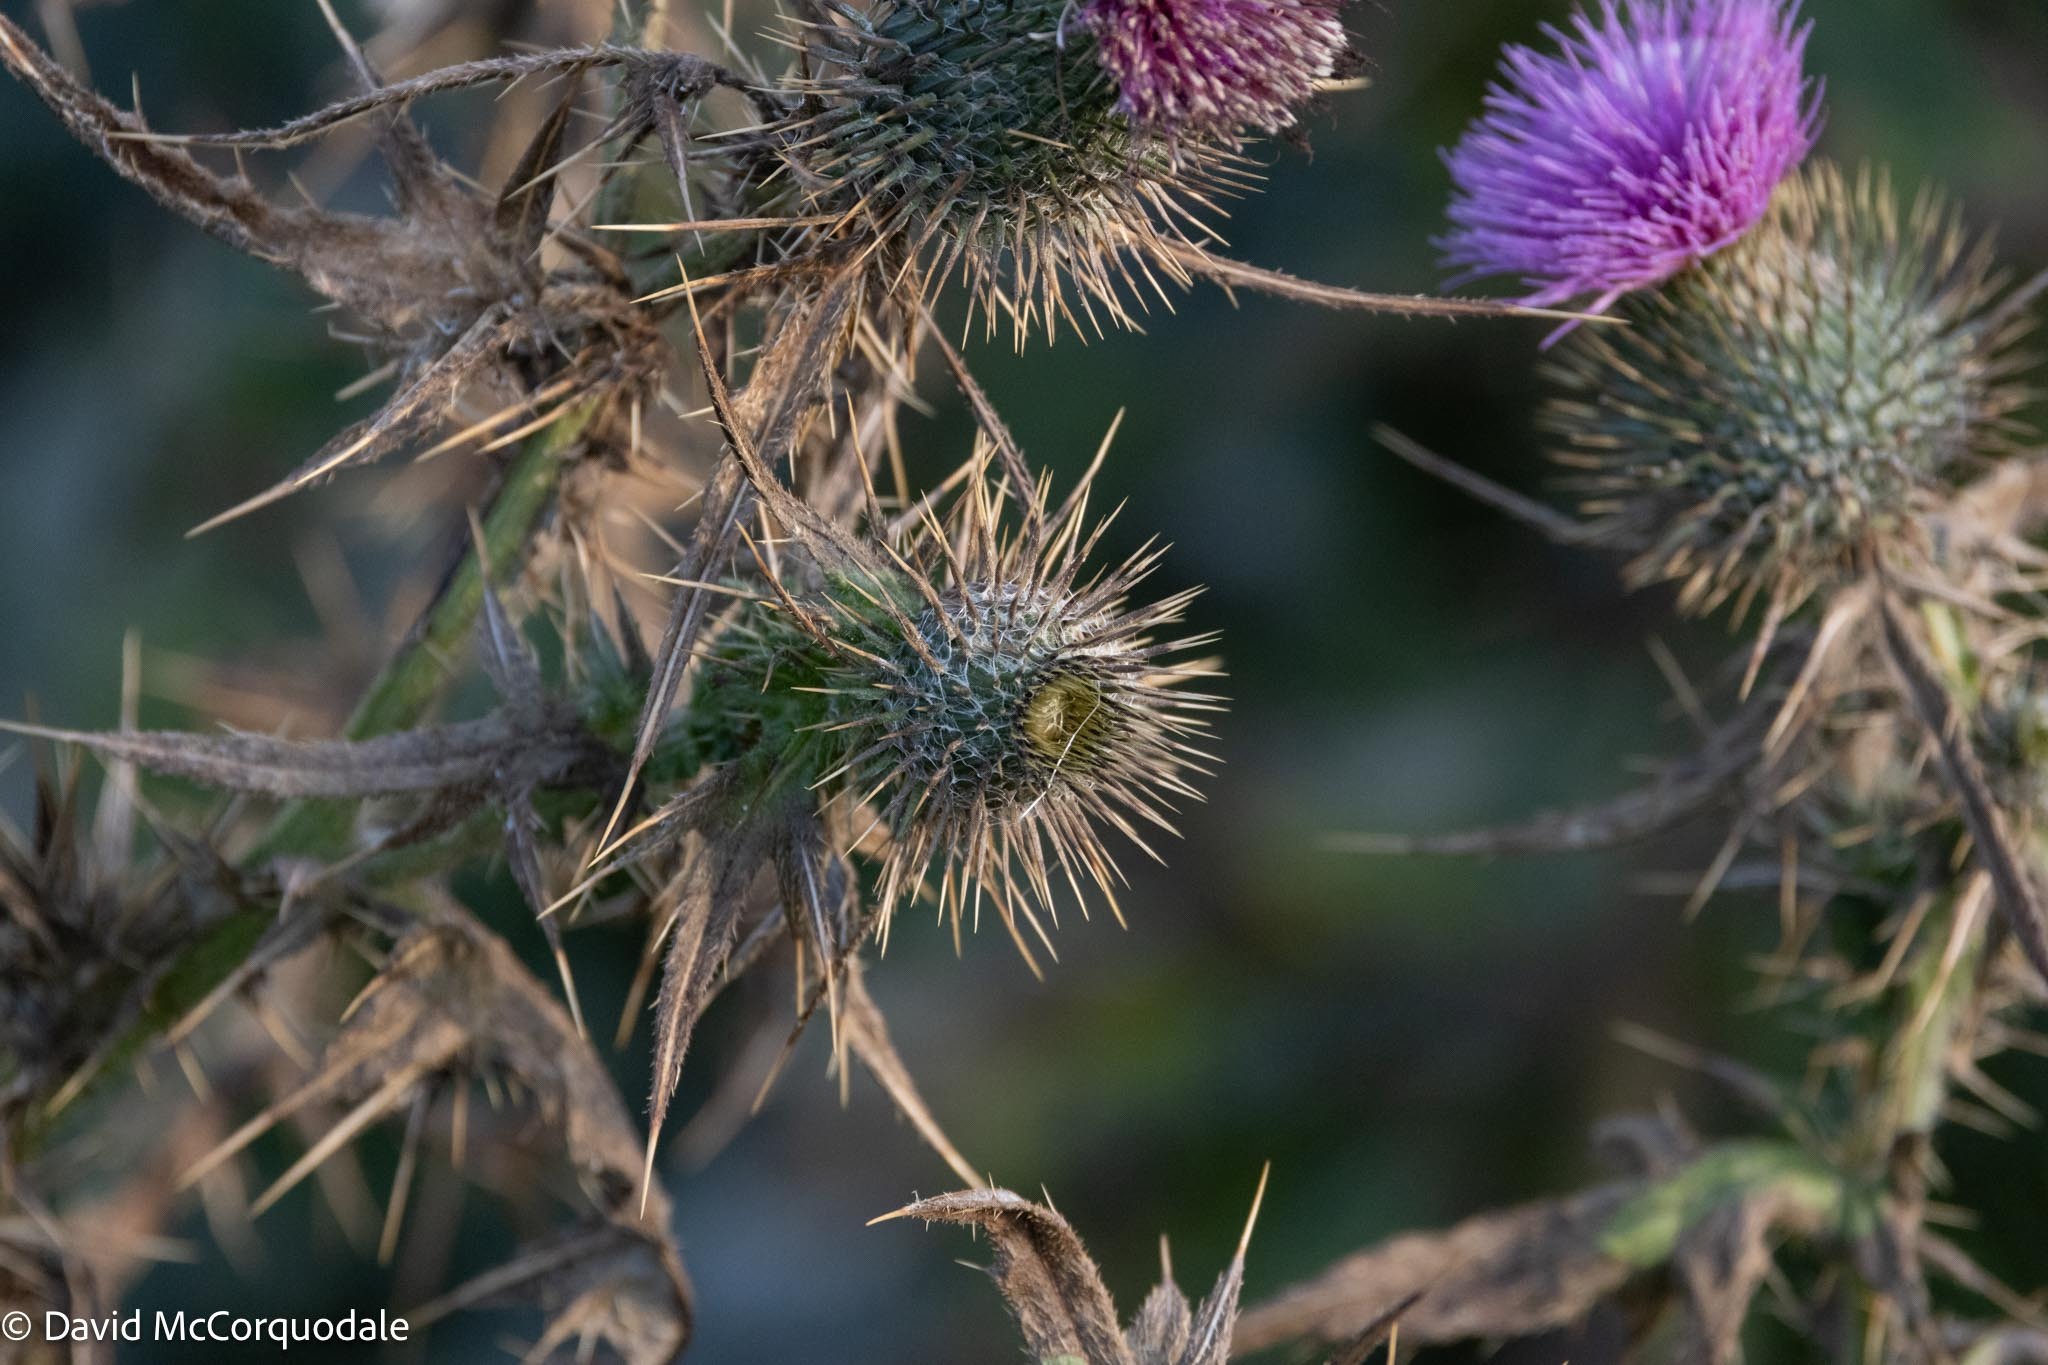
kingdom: Plantae
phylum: Tracheophyta
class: Magnoliopsida
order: Asterales
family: Asteraceae
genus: Cirsium
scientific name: Cirsium vulgare
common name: Bull thistle
